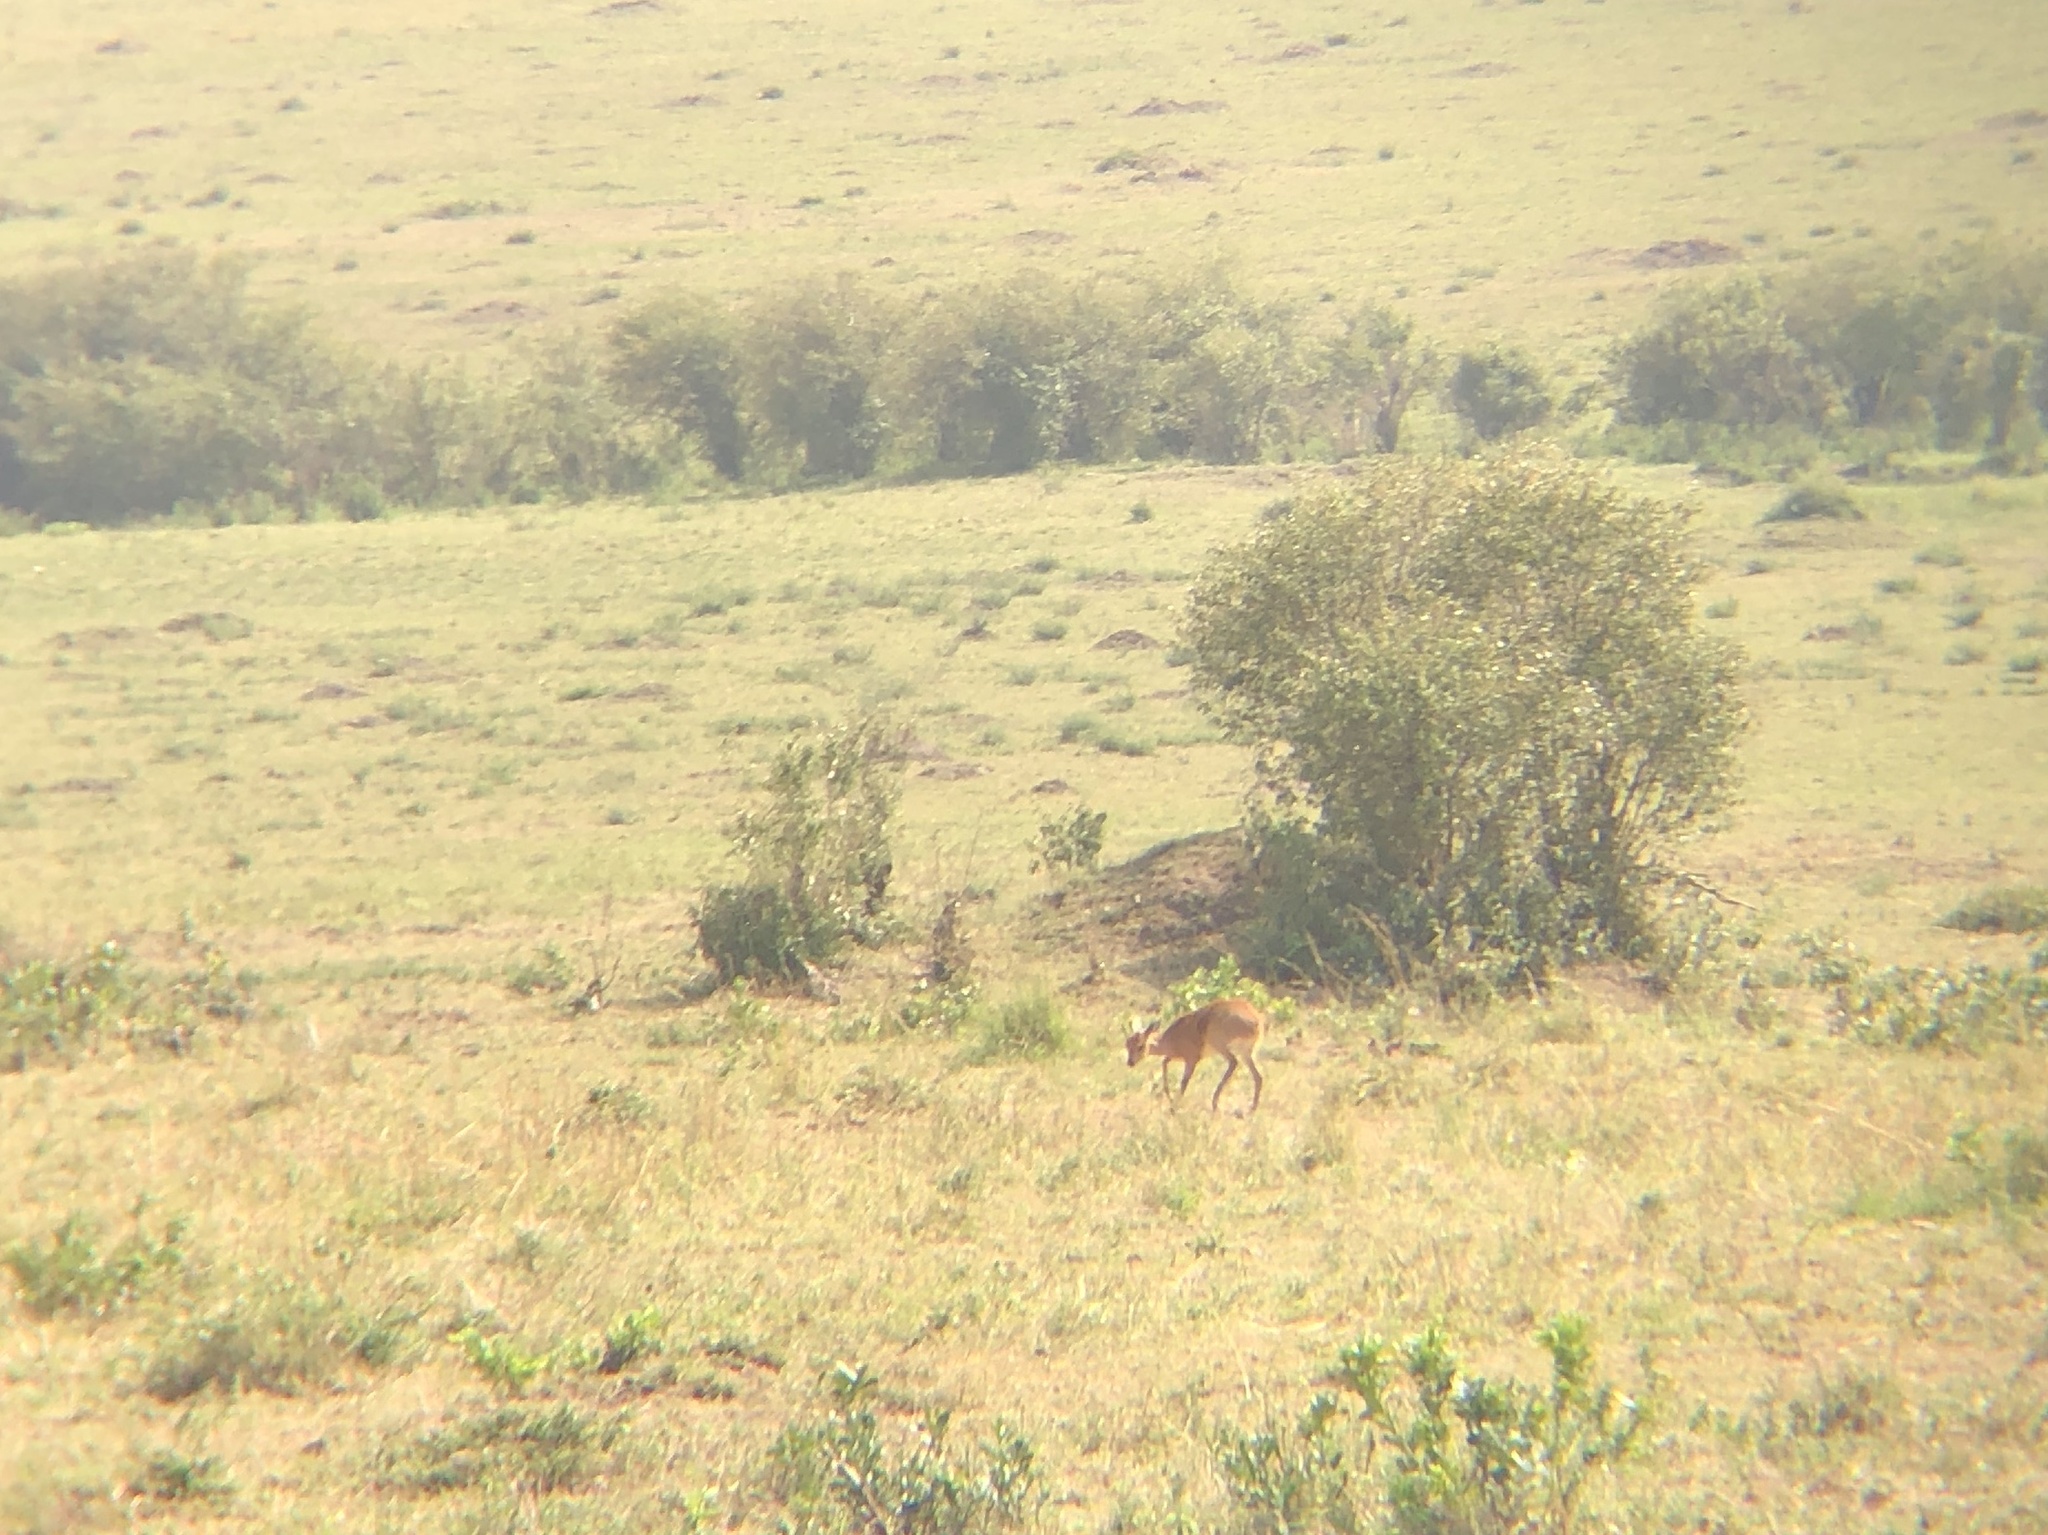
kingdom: Animalia
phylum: Chordata
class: Mammalia
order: Artiodactyla
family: Bovidae
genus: Raphicerus
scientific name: Raphicerus campestris
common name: Steenbok
